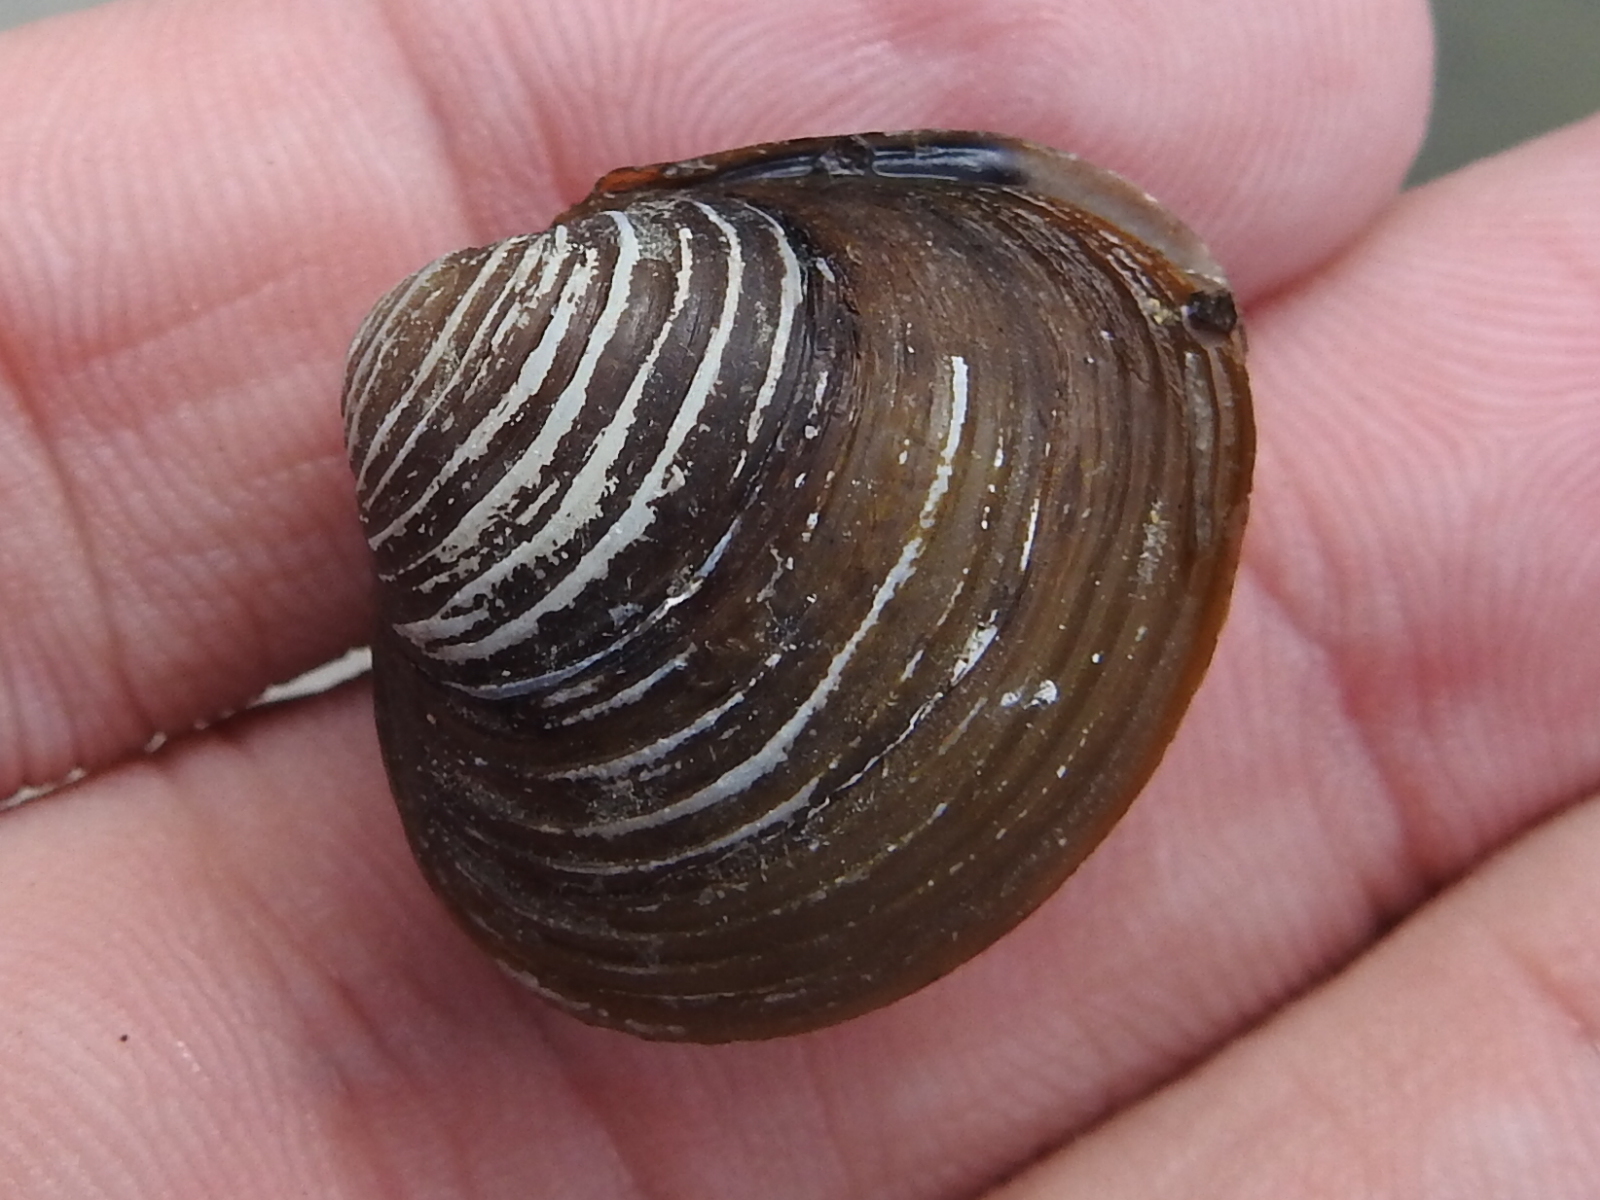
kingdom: Animalia
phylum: Mollusca
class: Bivalvia
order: Venerida
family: Cyrenidae
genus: Corbicula
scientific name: Corbicula fluminea
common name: Asian clam
